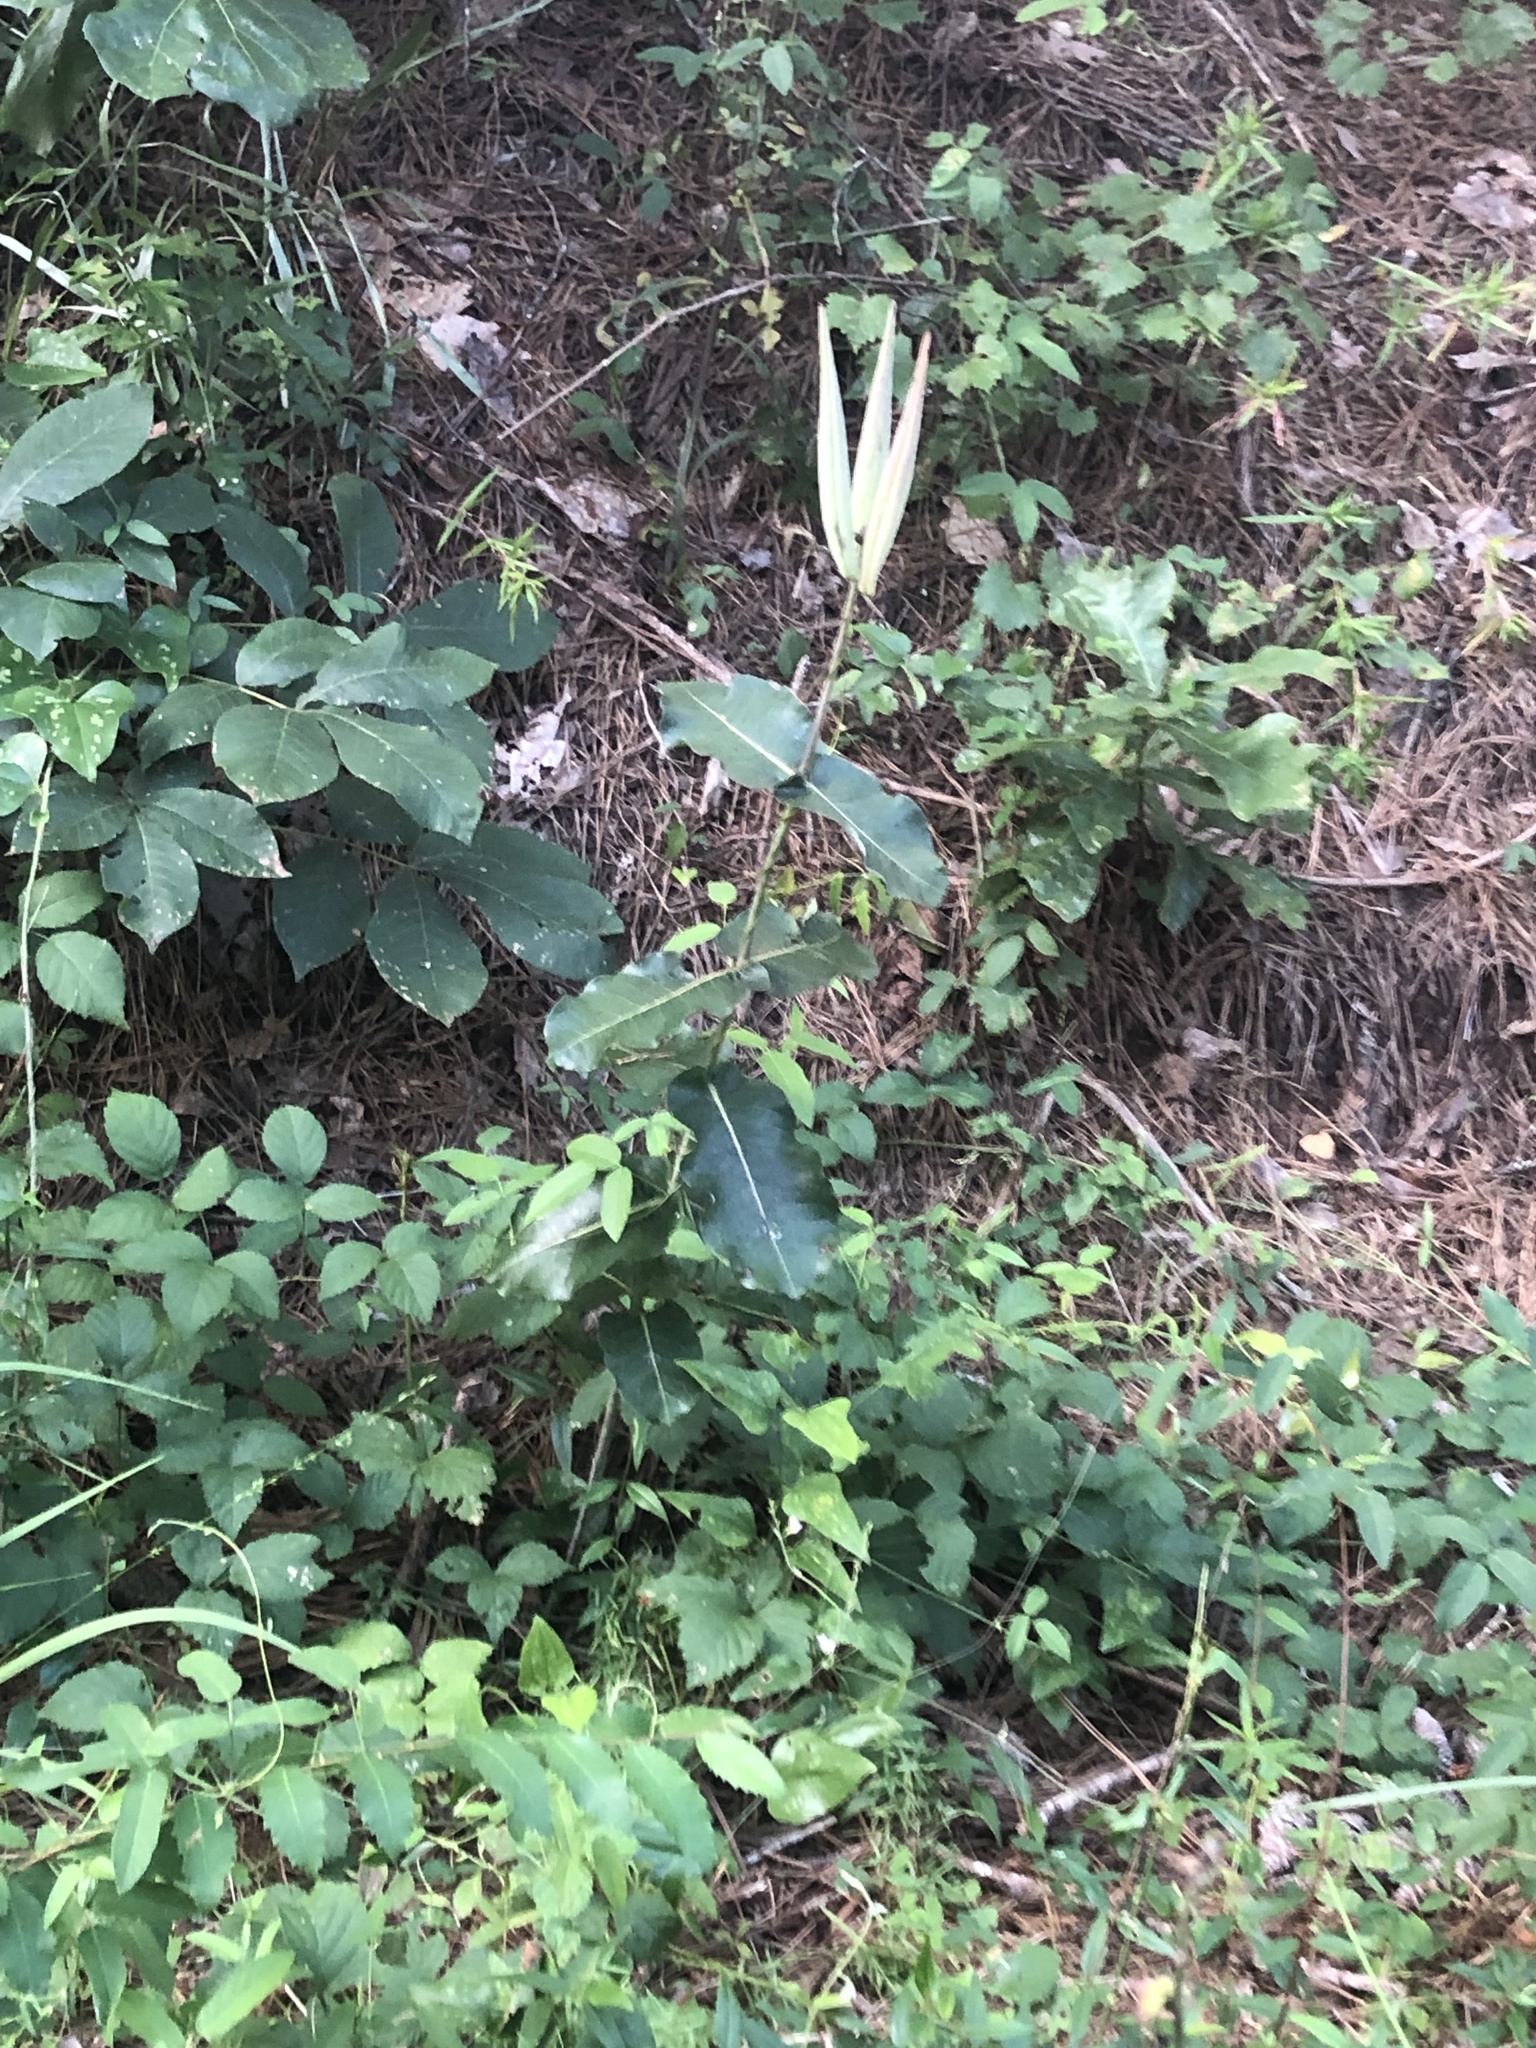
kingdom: Plantae
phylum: Tracheophyta
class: Magnoliopsida
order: Gentianales
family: Apocynaceae
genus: Asclepias
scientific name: Asclepias amplexicaulis
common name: Blunt-leaf milkweed
